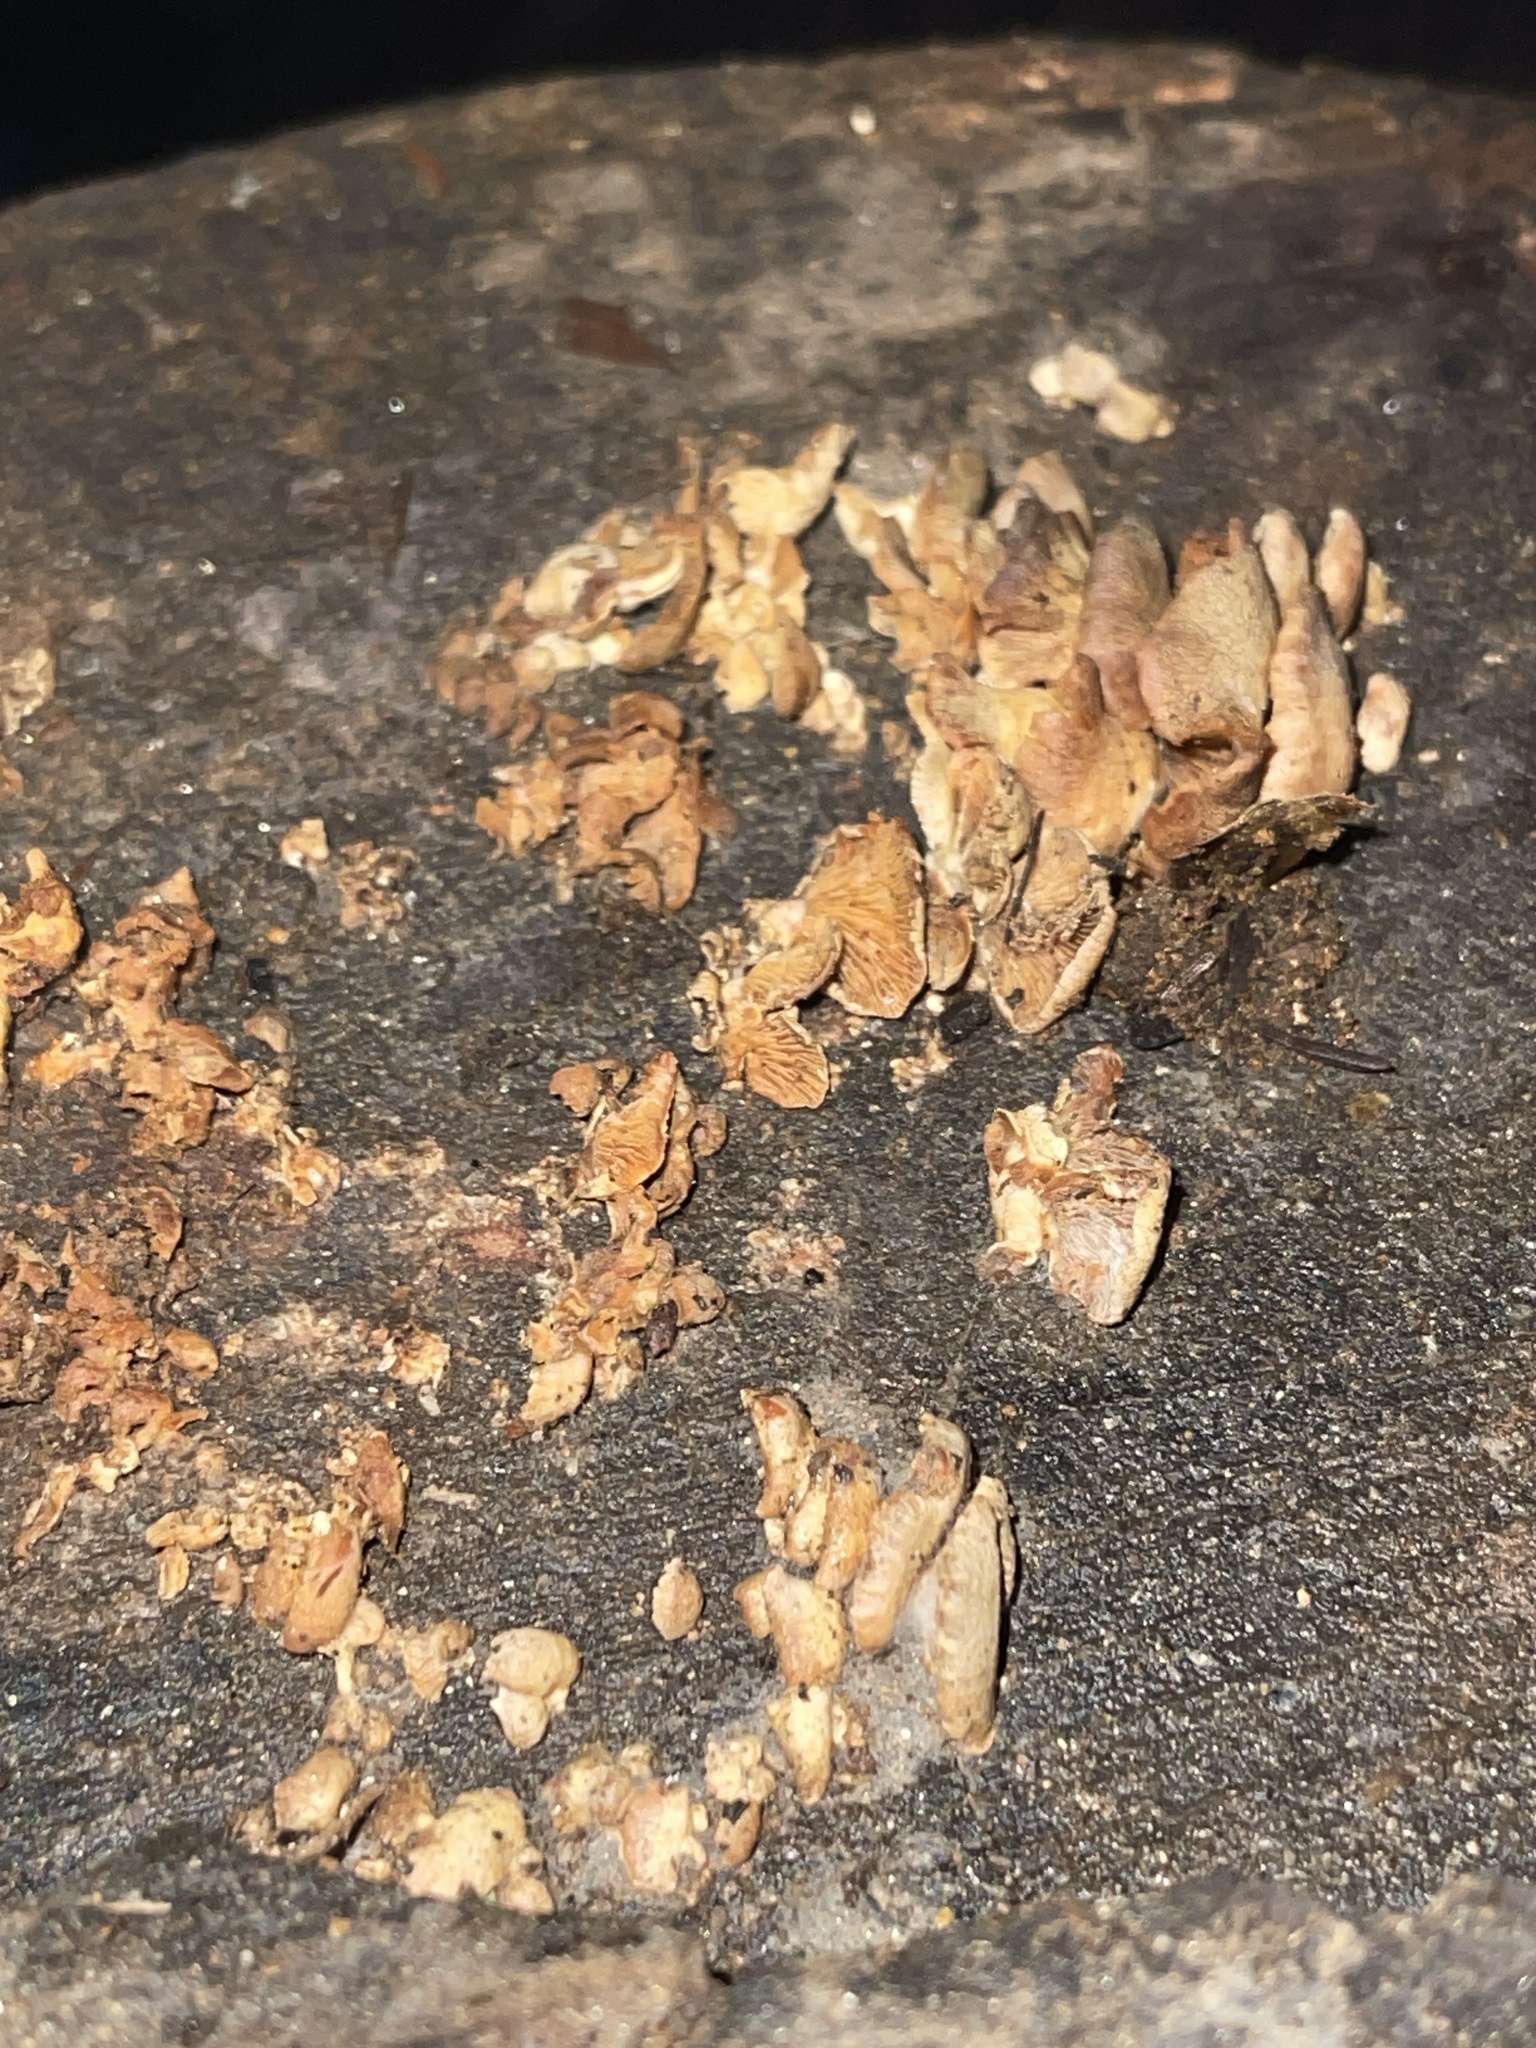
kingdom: Fungi
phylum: Basidiomycota
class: Agaricomycetes
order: Agaricales
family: Mycenaceae
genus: Panellus
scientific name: Panellus stipticus
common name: Bitter oysterling
